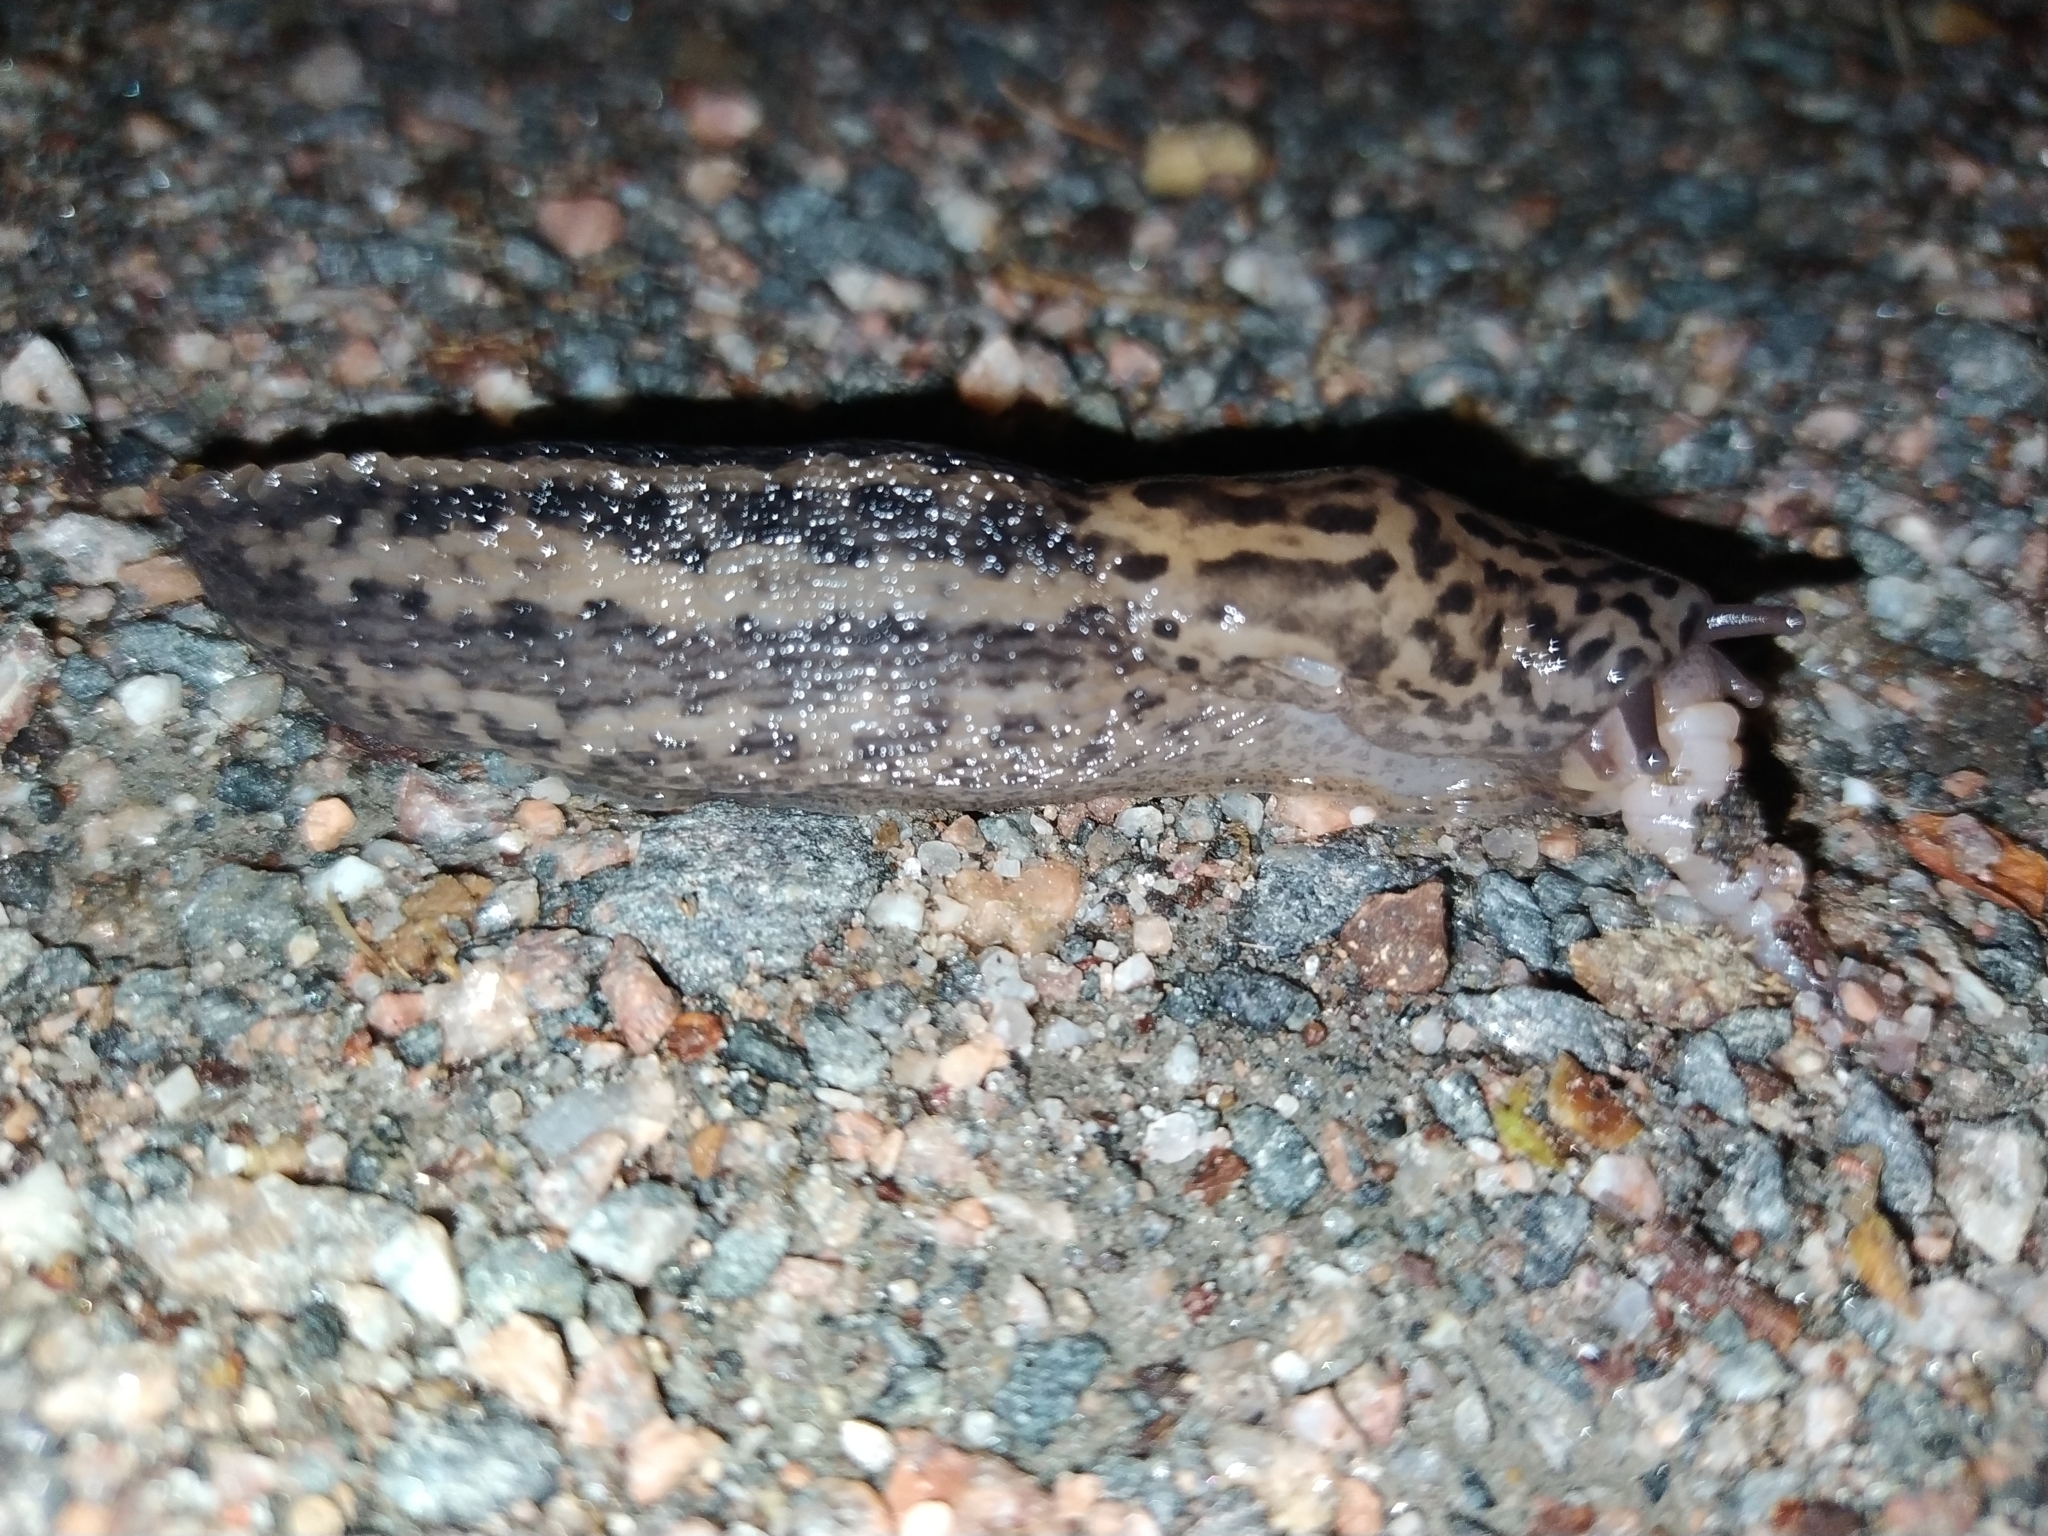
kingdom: Animalia
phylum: Mollusca
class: Gastropoda
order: Stylommatophora
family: Limacidae
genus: Limax
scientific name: Limax maximus
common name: Great grey slug
